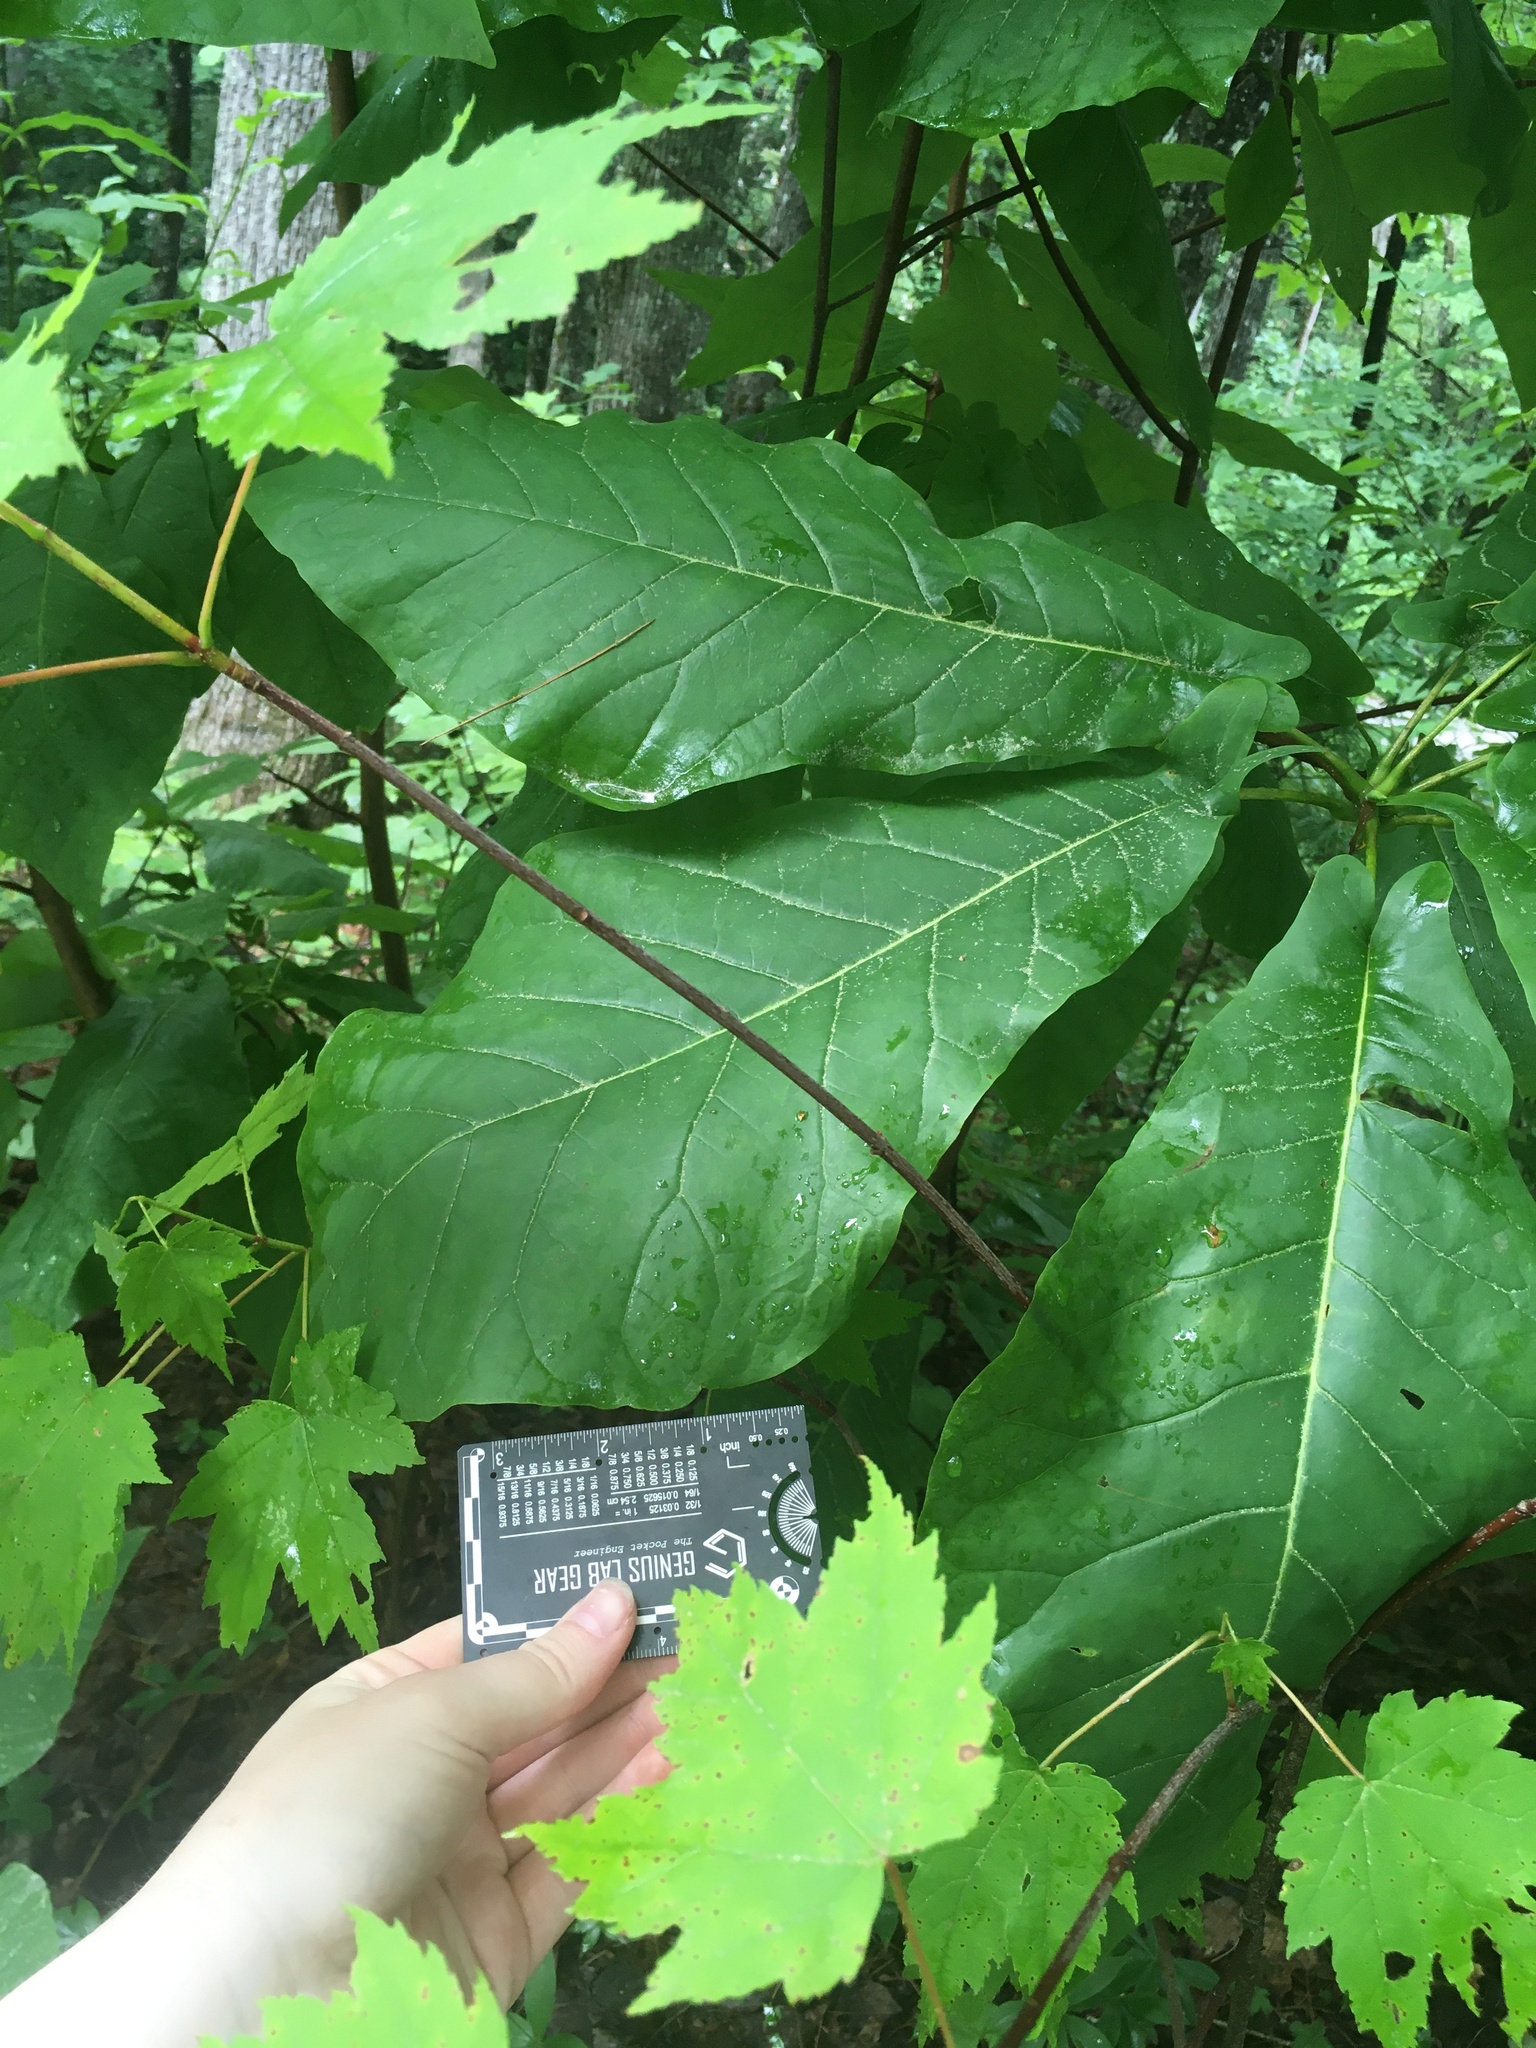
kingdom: Plantae
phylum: Tracheophyta
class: Magnoliopsida
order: Magnoliales
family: Magnoliaceae
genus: Magnolia
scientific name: Magnolia fraseri
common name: Fraser's magnolia
